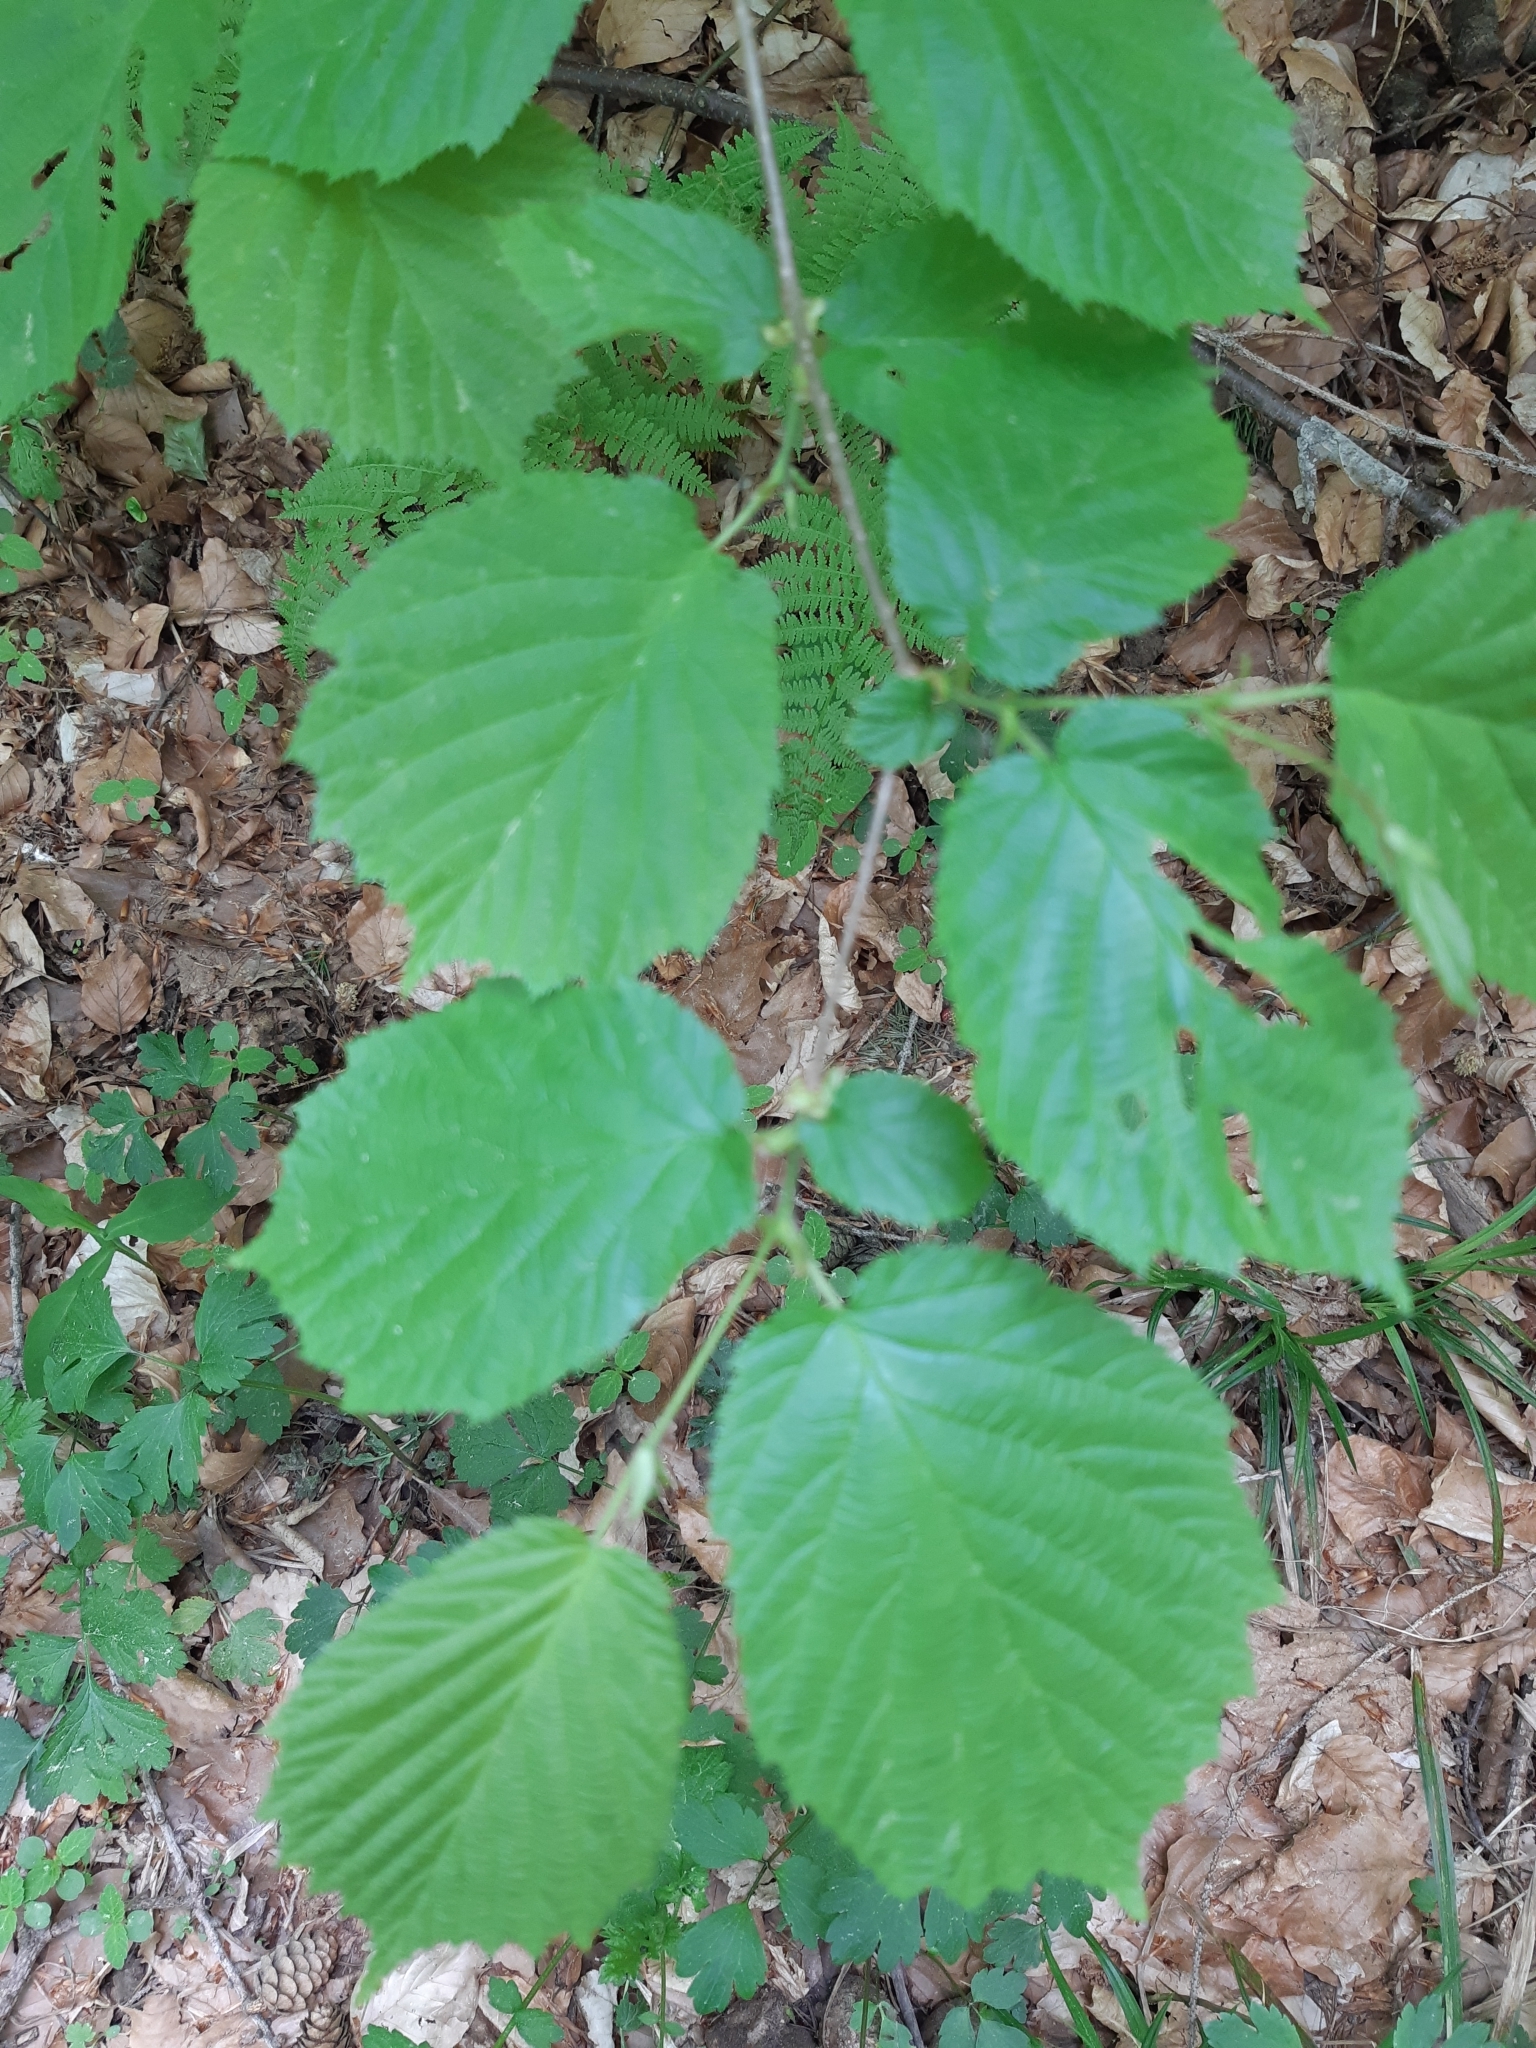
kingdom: Plantae
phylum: Tracheophyta
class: Magnoliopsida
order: Fagales
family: Betulaceae
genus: Corylus
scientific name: Corylus avellana
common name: European hazel
